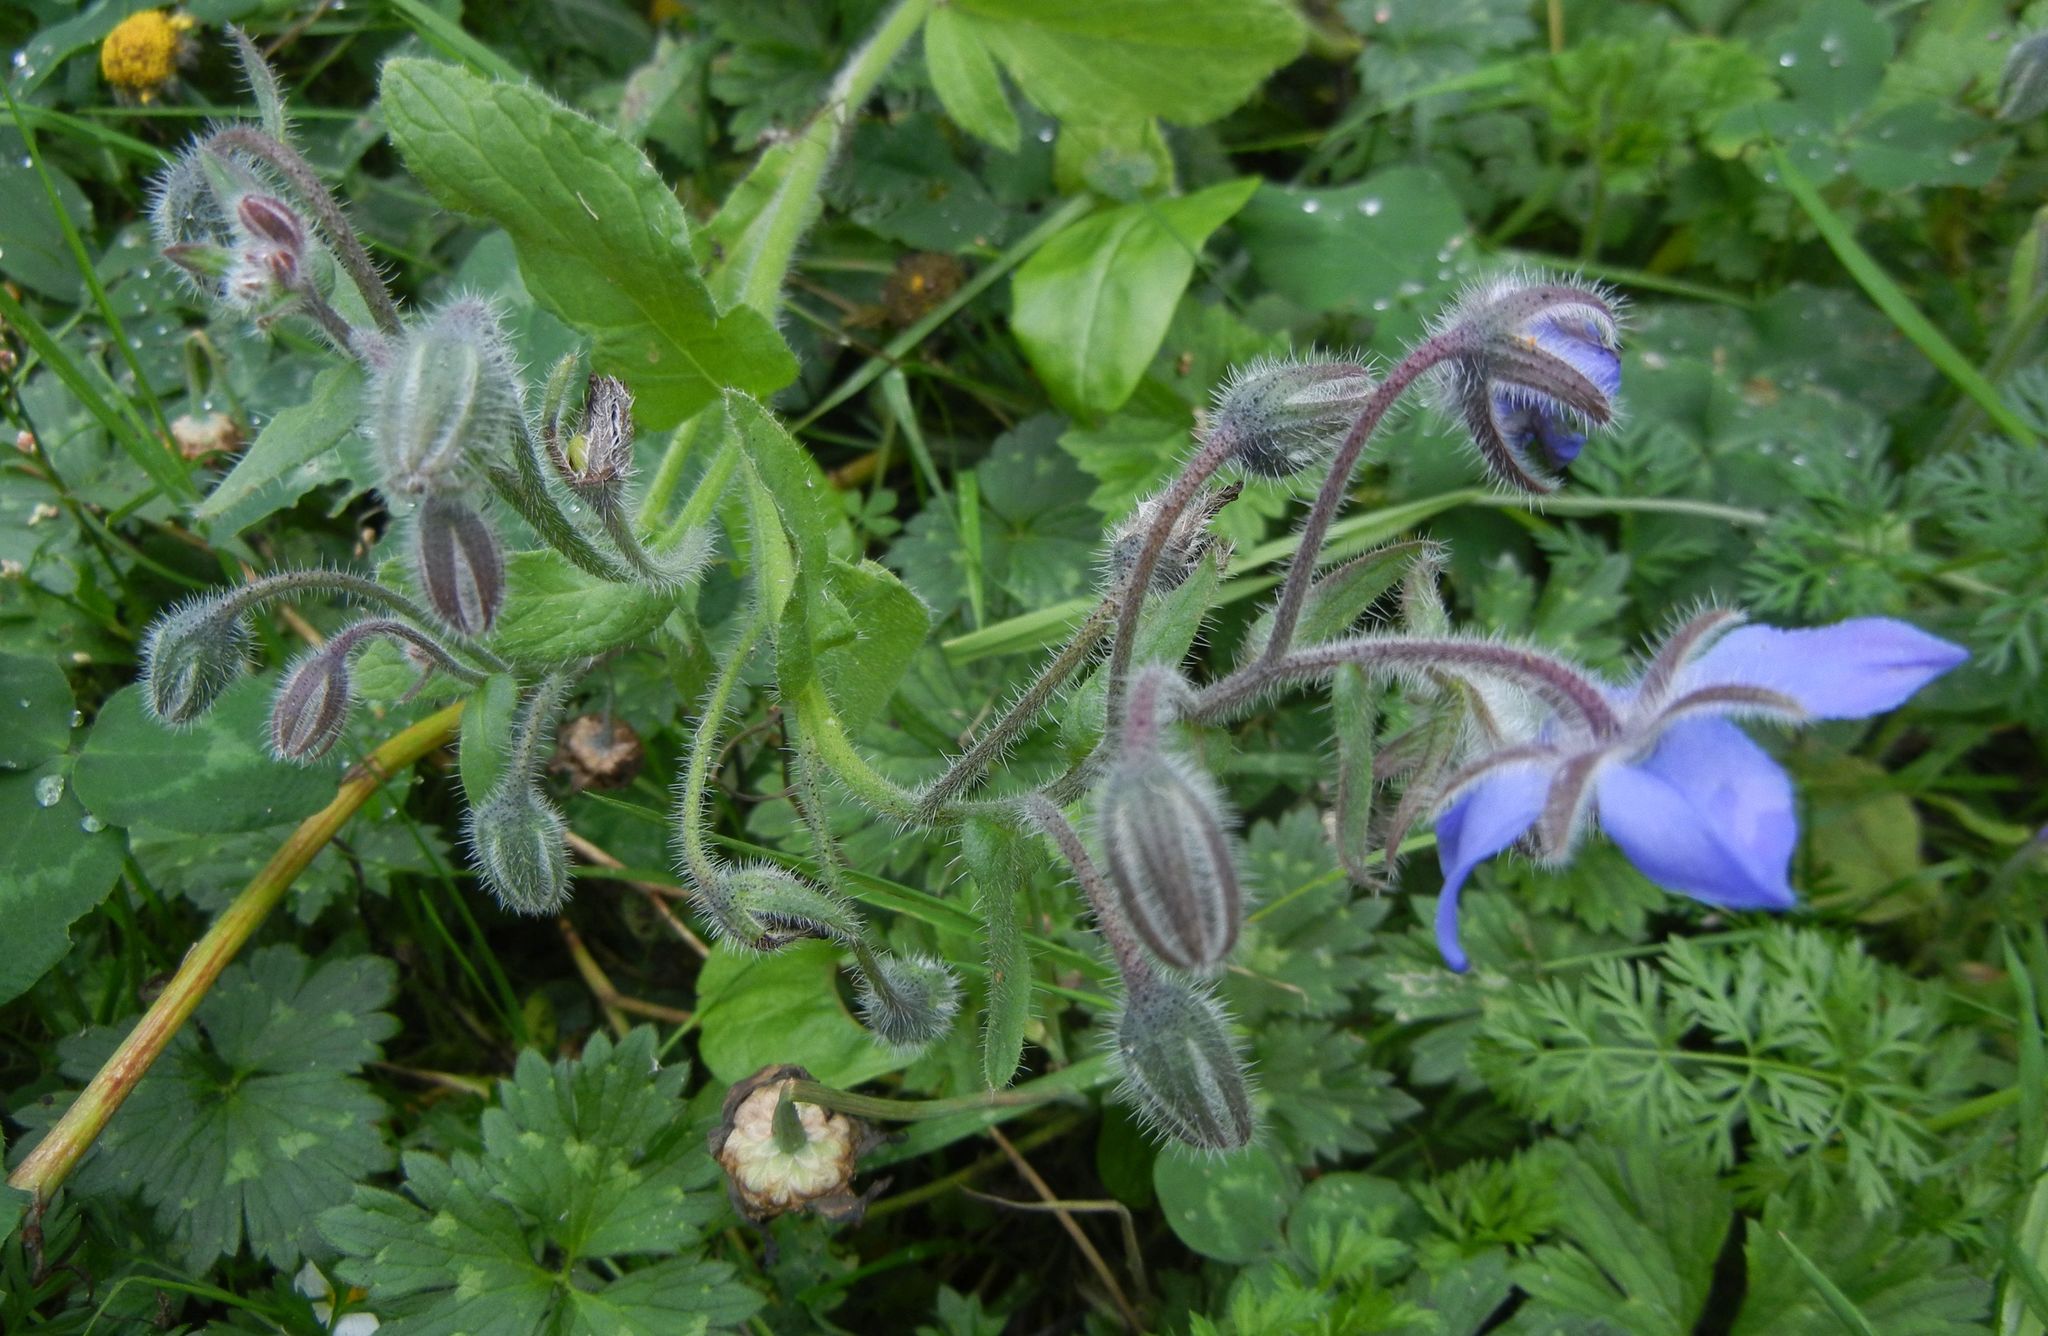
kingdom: Plantae
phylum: Tracheophyta
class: Magnoliopsida
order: Boraginales
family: Boraginaceae
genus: Borago
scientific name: Borago officinalis
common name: Borage
